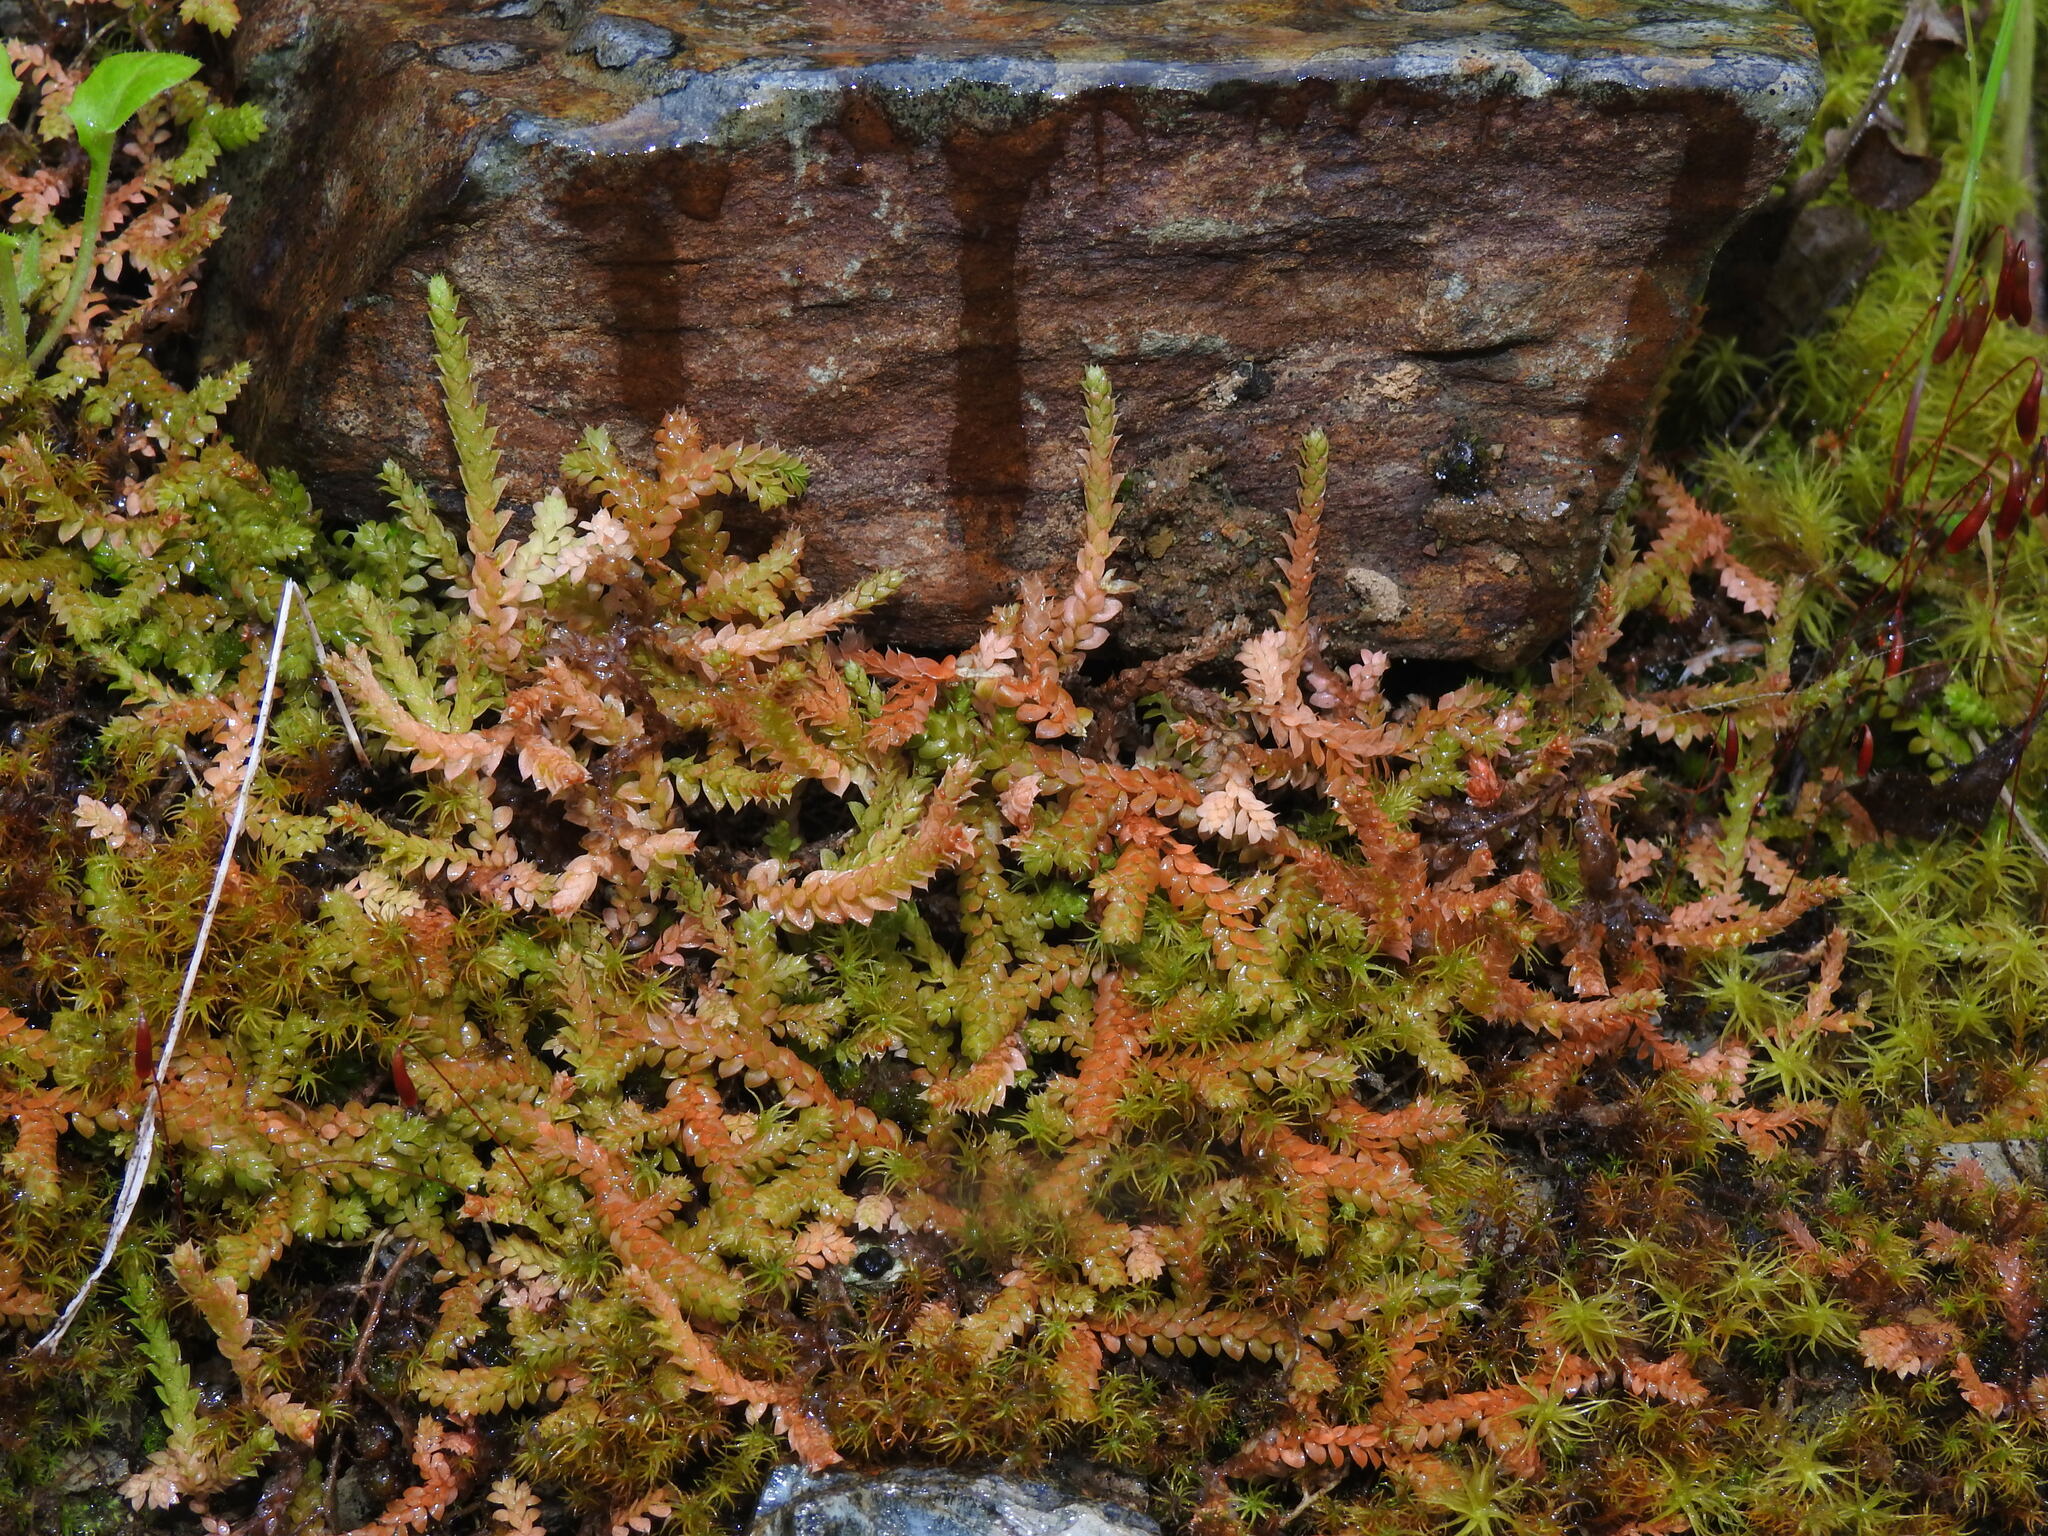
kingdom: Plantae
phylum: Tracheophyta
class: Lycopodiopsida
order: Selaginellales
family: Selaginellaceae
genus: Selaginella
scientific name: Selaginella denticulata
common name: Toothed-leaved clubmoss
